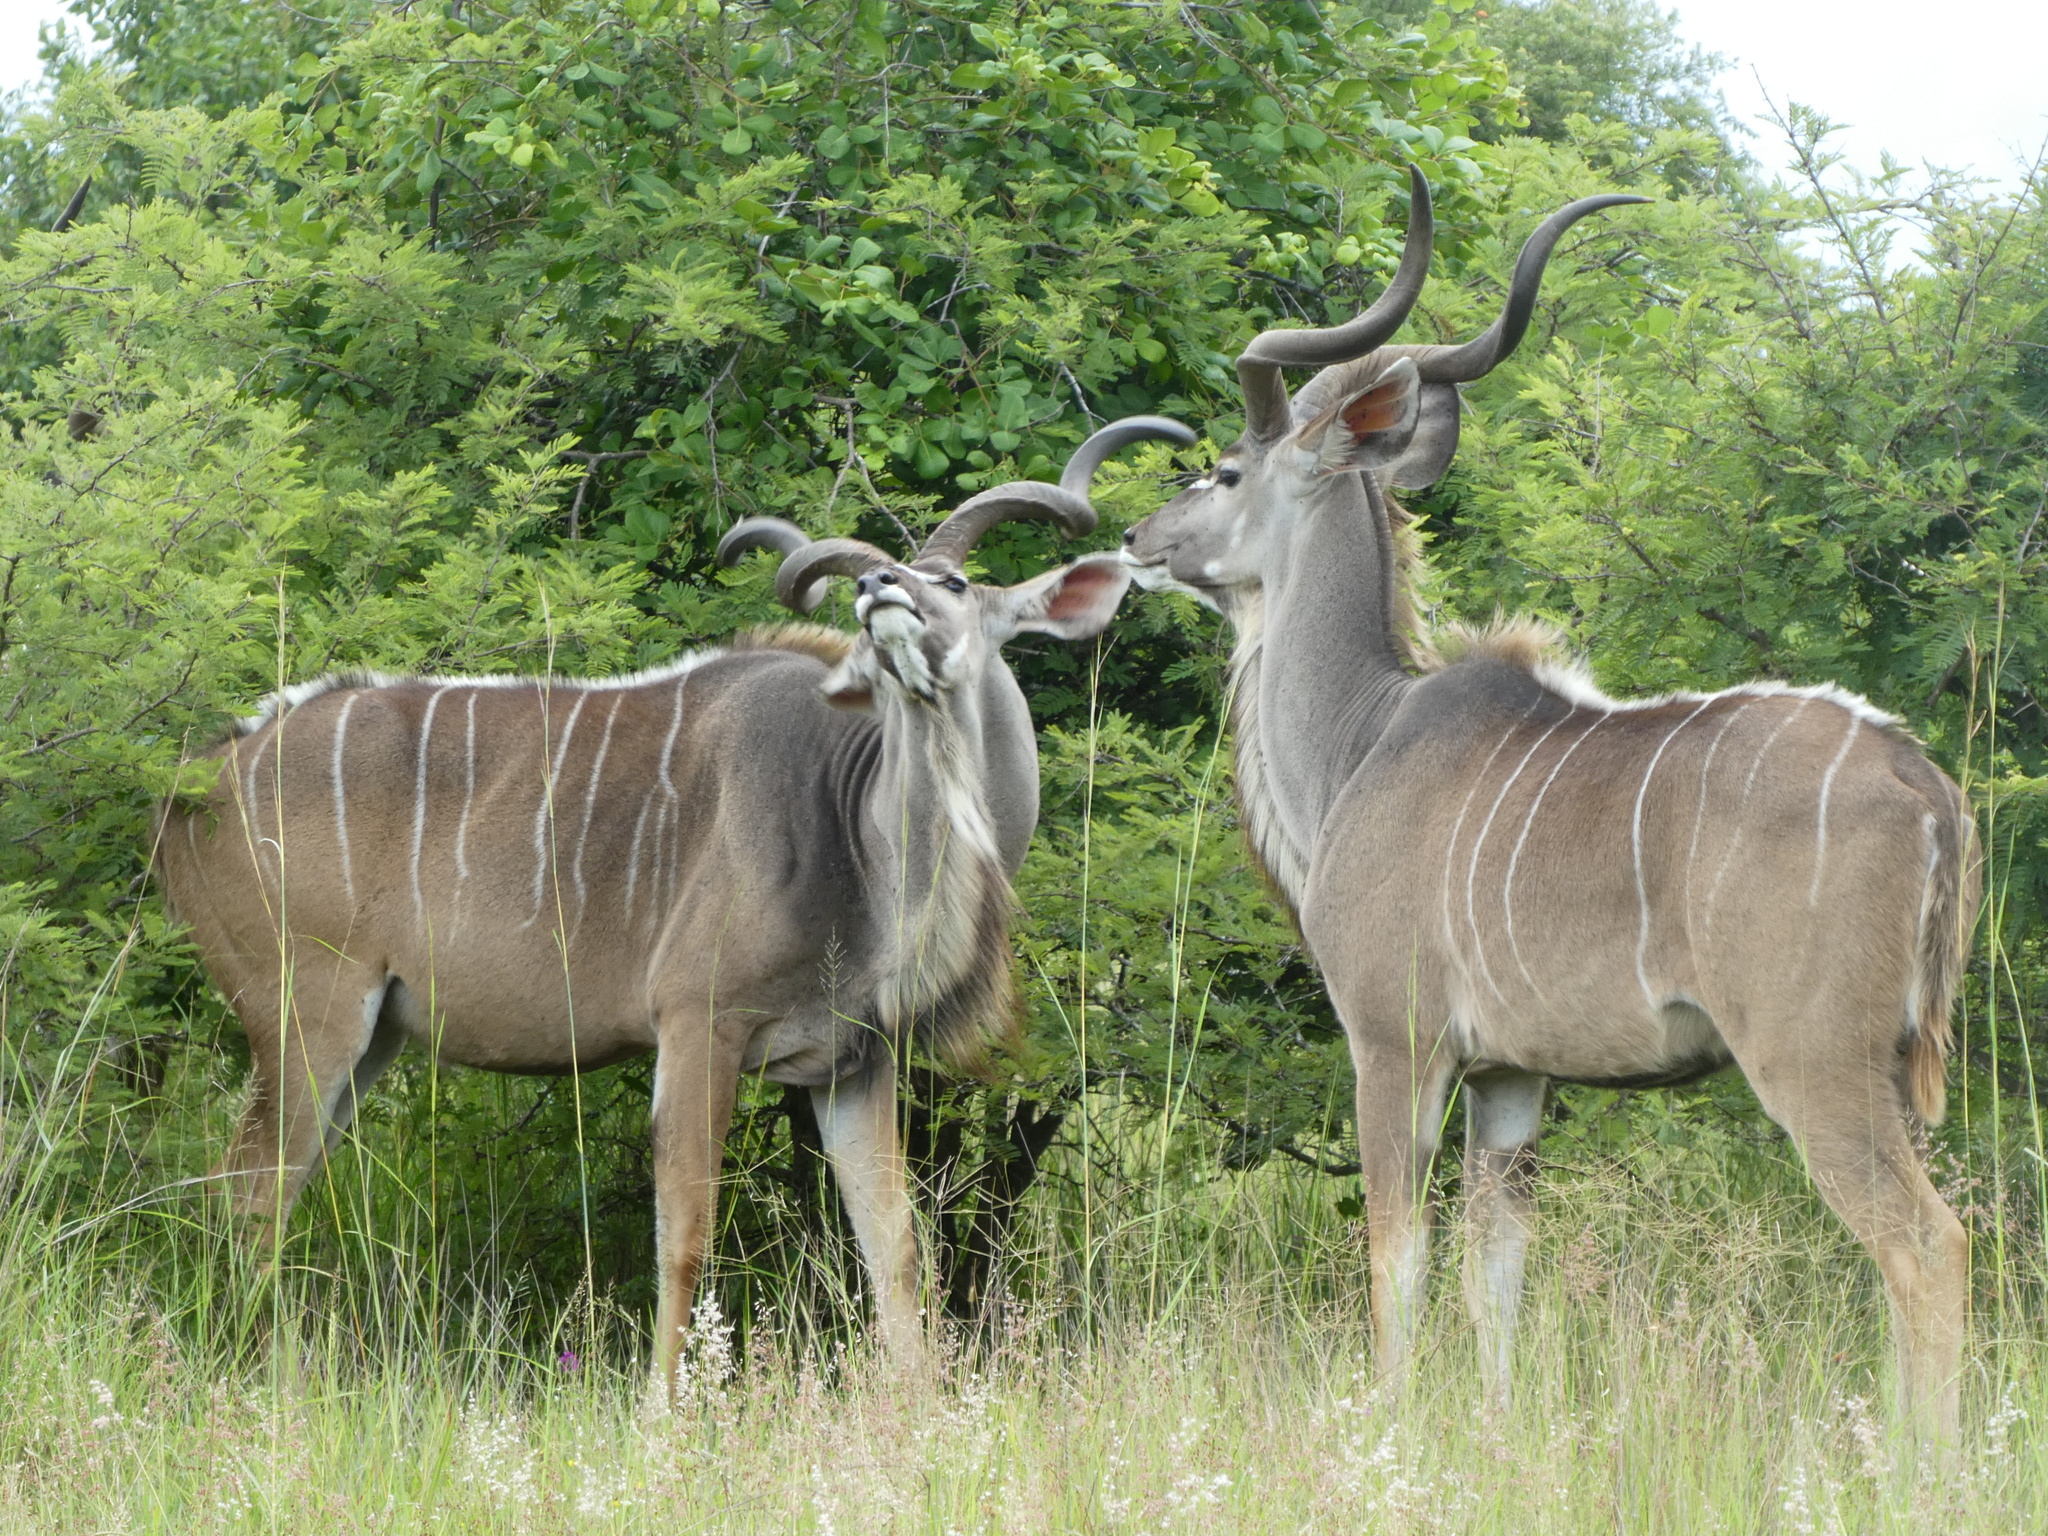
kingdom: Animalia
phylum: Chordata
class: Mammalia
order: Artiodactyla
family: Bovidae
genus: Tragelaphus
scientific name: Tragelaphus strepsiceros
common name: Greater kudu
